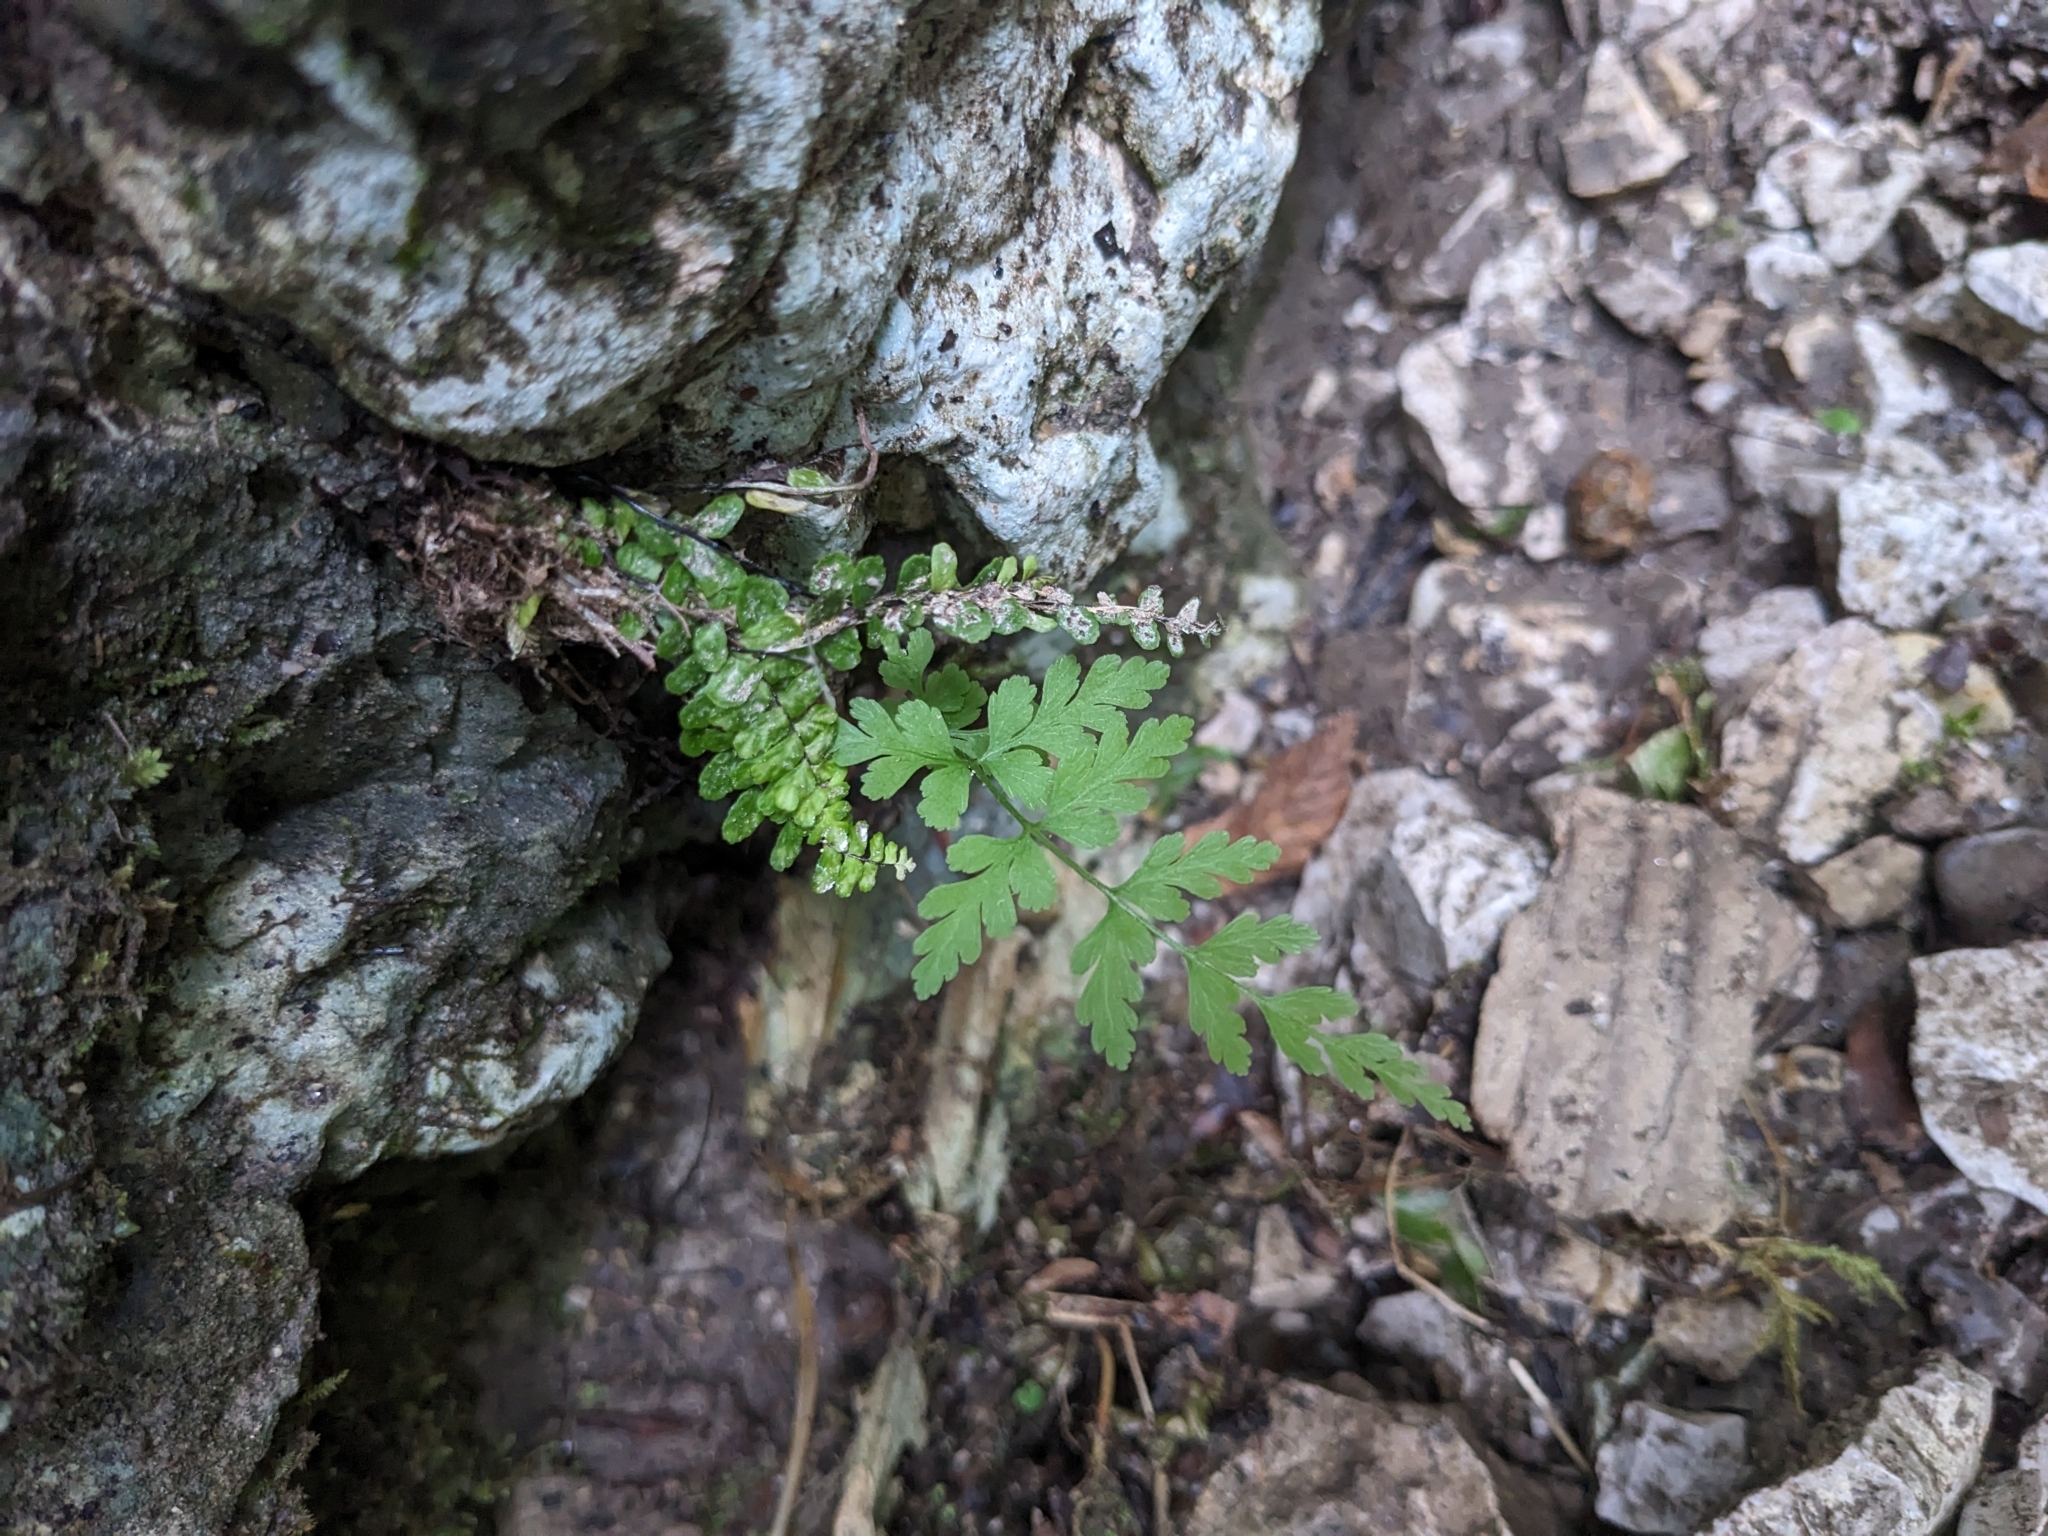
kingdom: Plantae
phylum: Tracheophyta
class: Polypodiopsida
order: Polypodiales
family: Cystopteridaceae
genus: Cystopteris
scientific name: Cystopteris fragilis
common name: Brittle bladder fern
